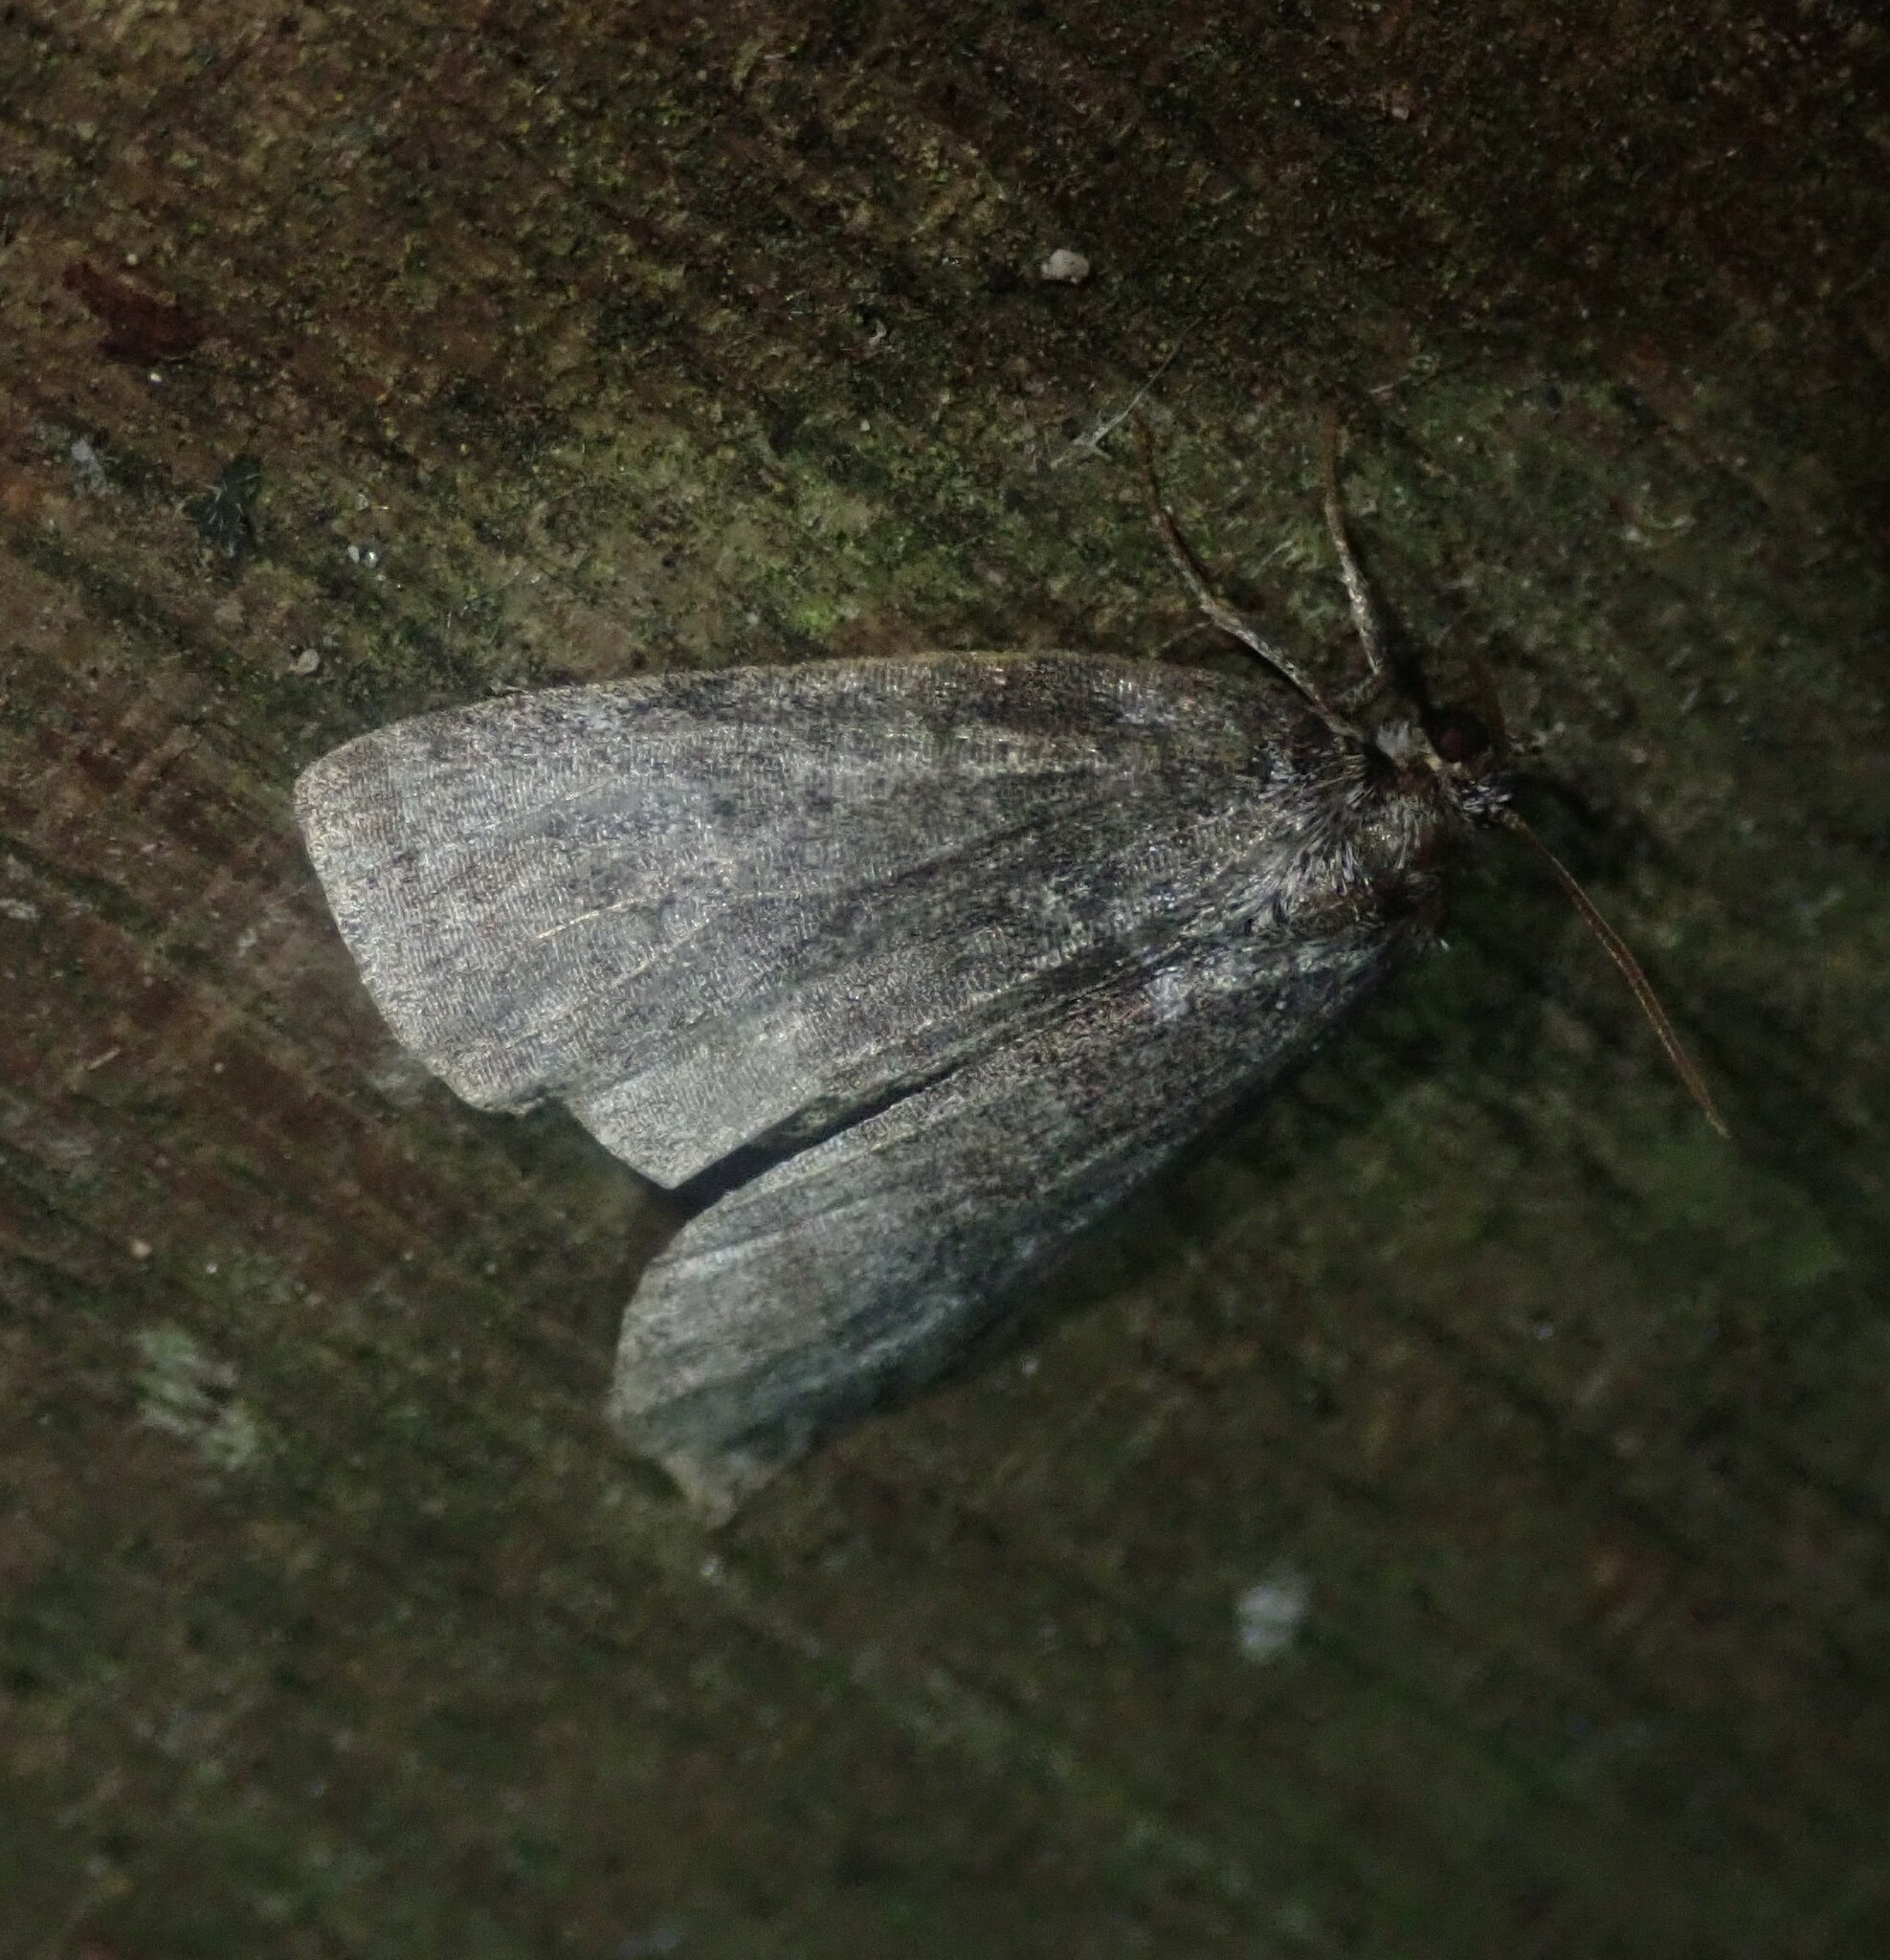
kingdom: Animalia
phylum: Arthropoda
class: Insecta
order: Lepidoptera
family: Drepanidae
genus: Ochropacha
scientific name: Ochropacha duplaris
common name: Common lutestring
